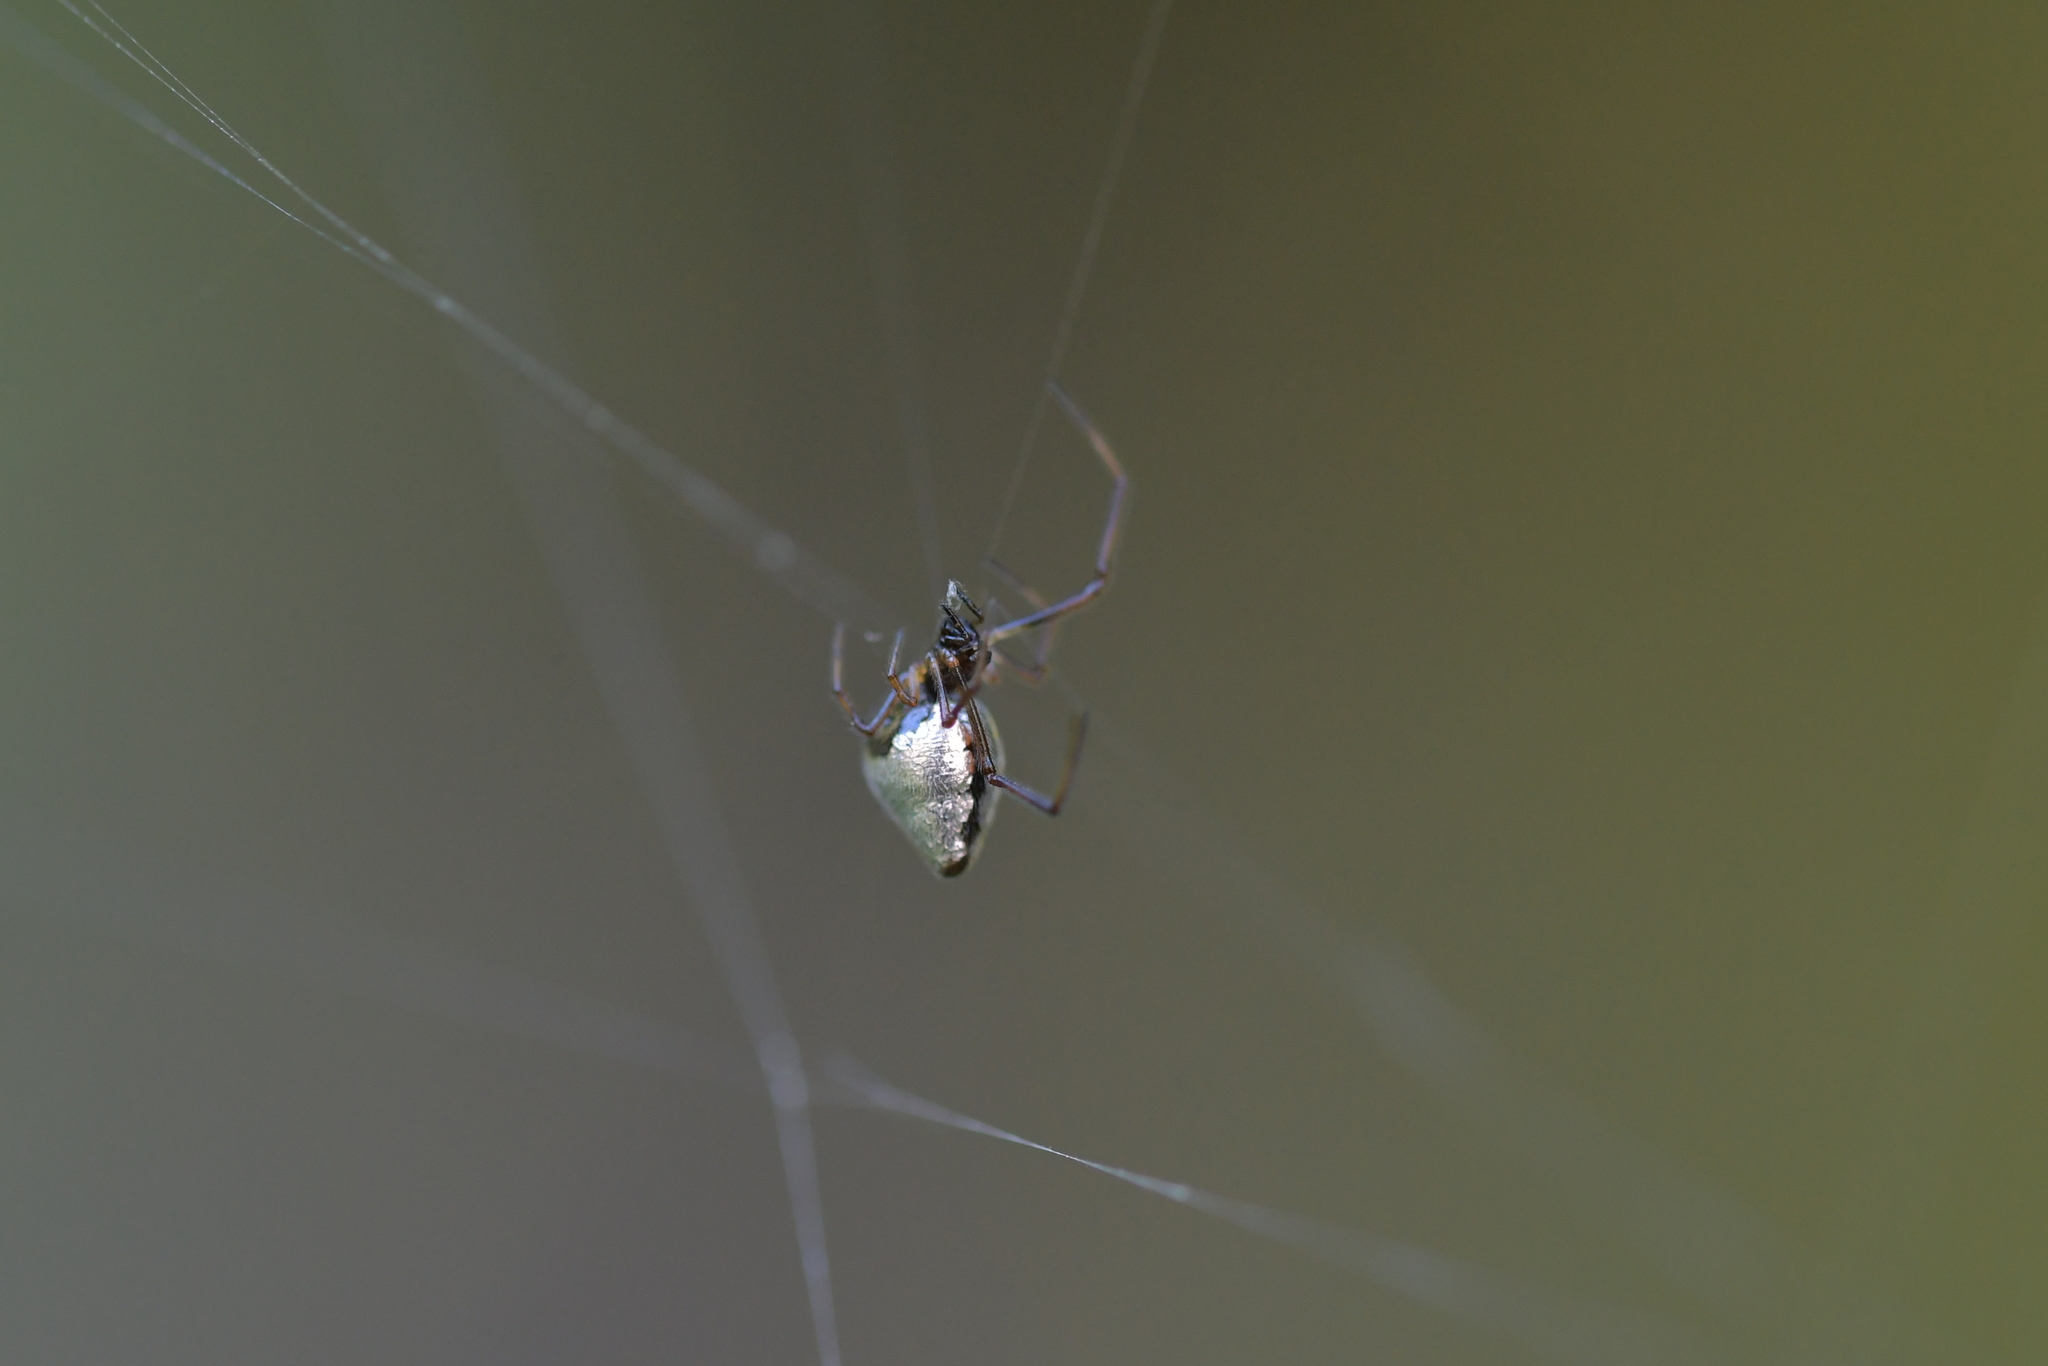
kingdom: Animalia
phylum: Arthropoda
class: Arachnida
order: Araneae
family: Theridiidae
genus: Argyrodes
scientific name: Argyrodes antipodianus
